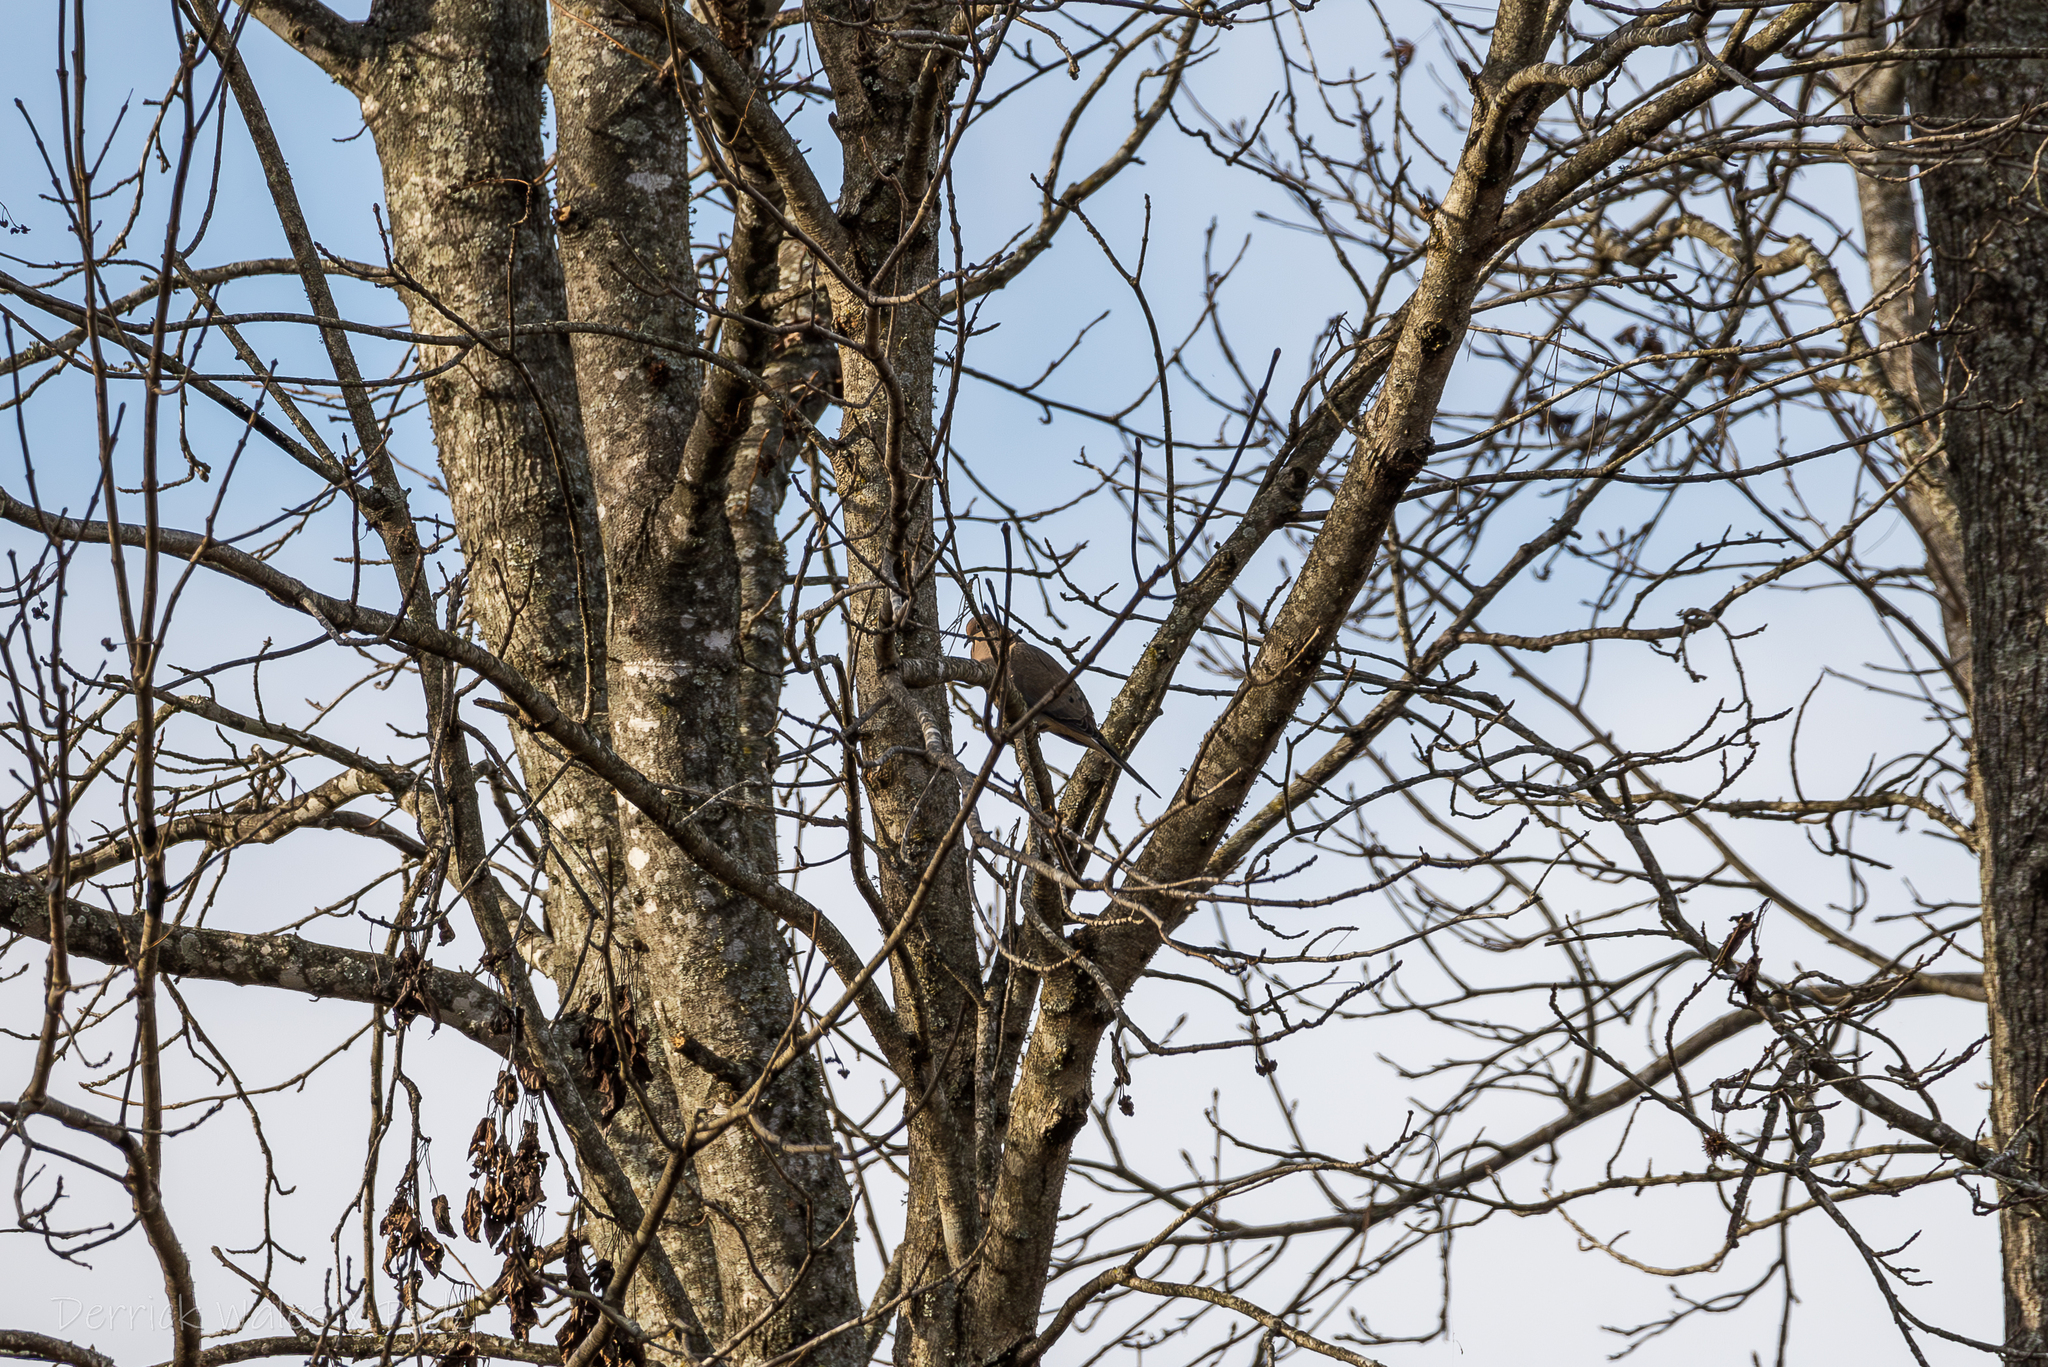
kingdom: Animalia
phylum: Chordata
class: Aves
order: Columbiformes
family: Columbidae
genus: Zenaida
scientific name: Zenaida macroura
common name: Mourning dove
